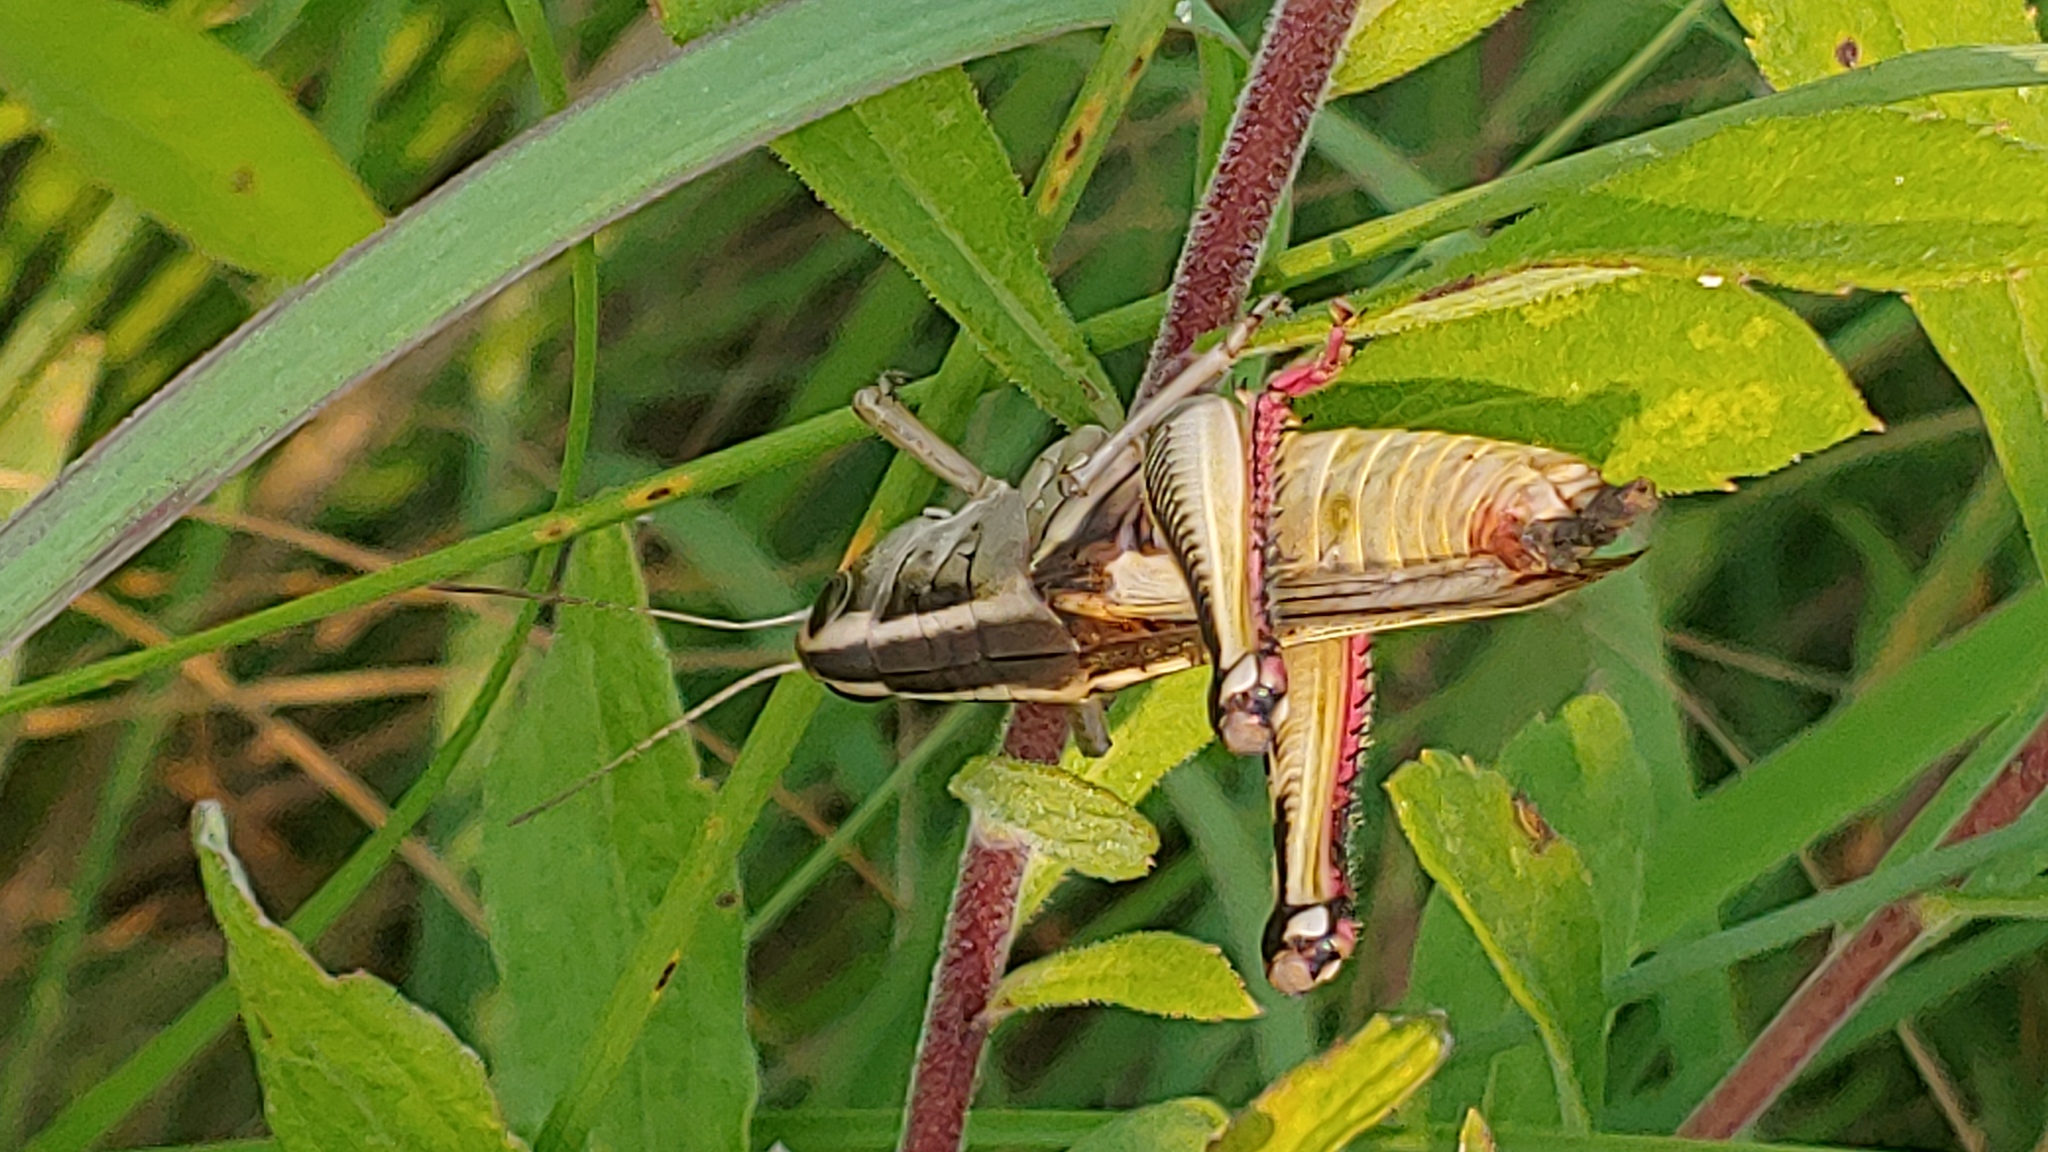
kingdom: Animalia
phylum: Arthropoda
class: Insecta
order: Orthoptera
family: Acrididae
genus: Melanoplus
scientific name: Melanoplus bivittatus
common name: Two-striped grasshopper
